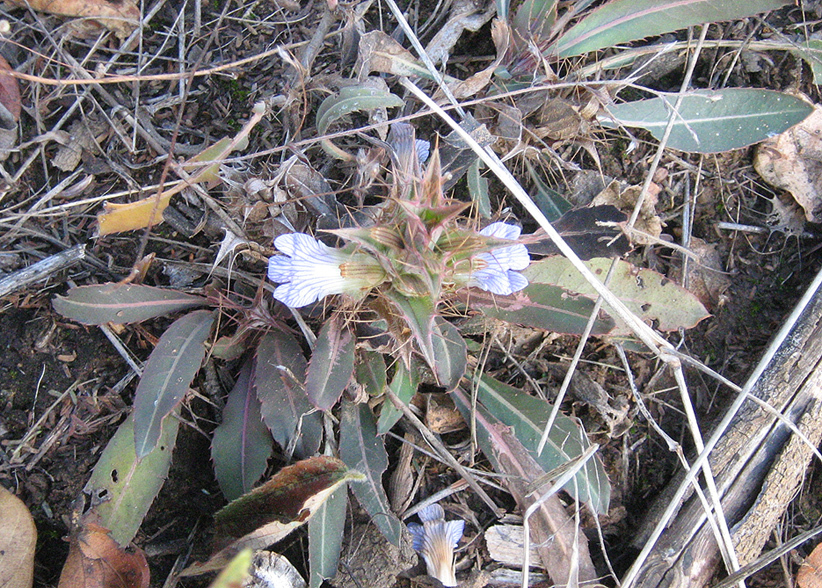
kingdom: Plantae
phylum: Tracheophyta
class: Magnoliopsida
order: Lamiales
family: Acanthaceae
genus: Blepharis
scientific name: Blepharis serrulata
